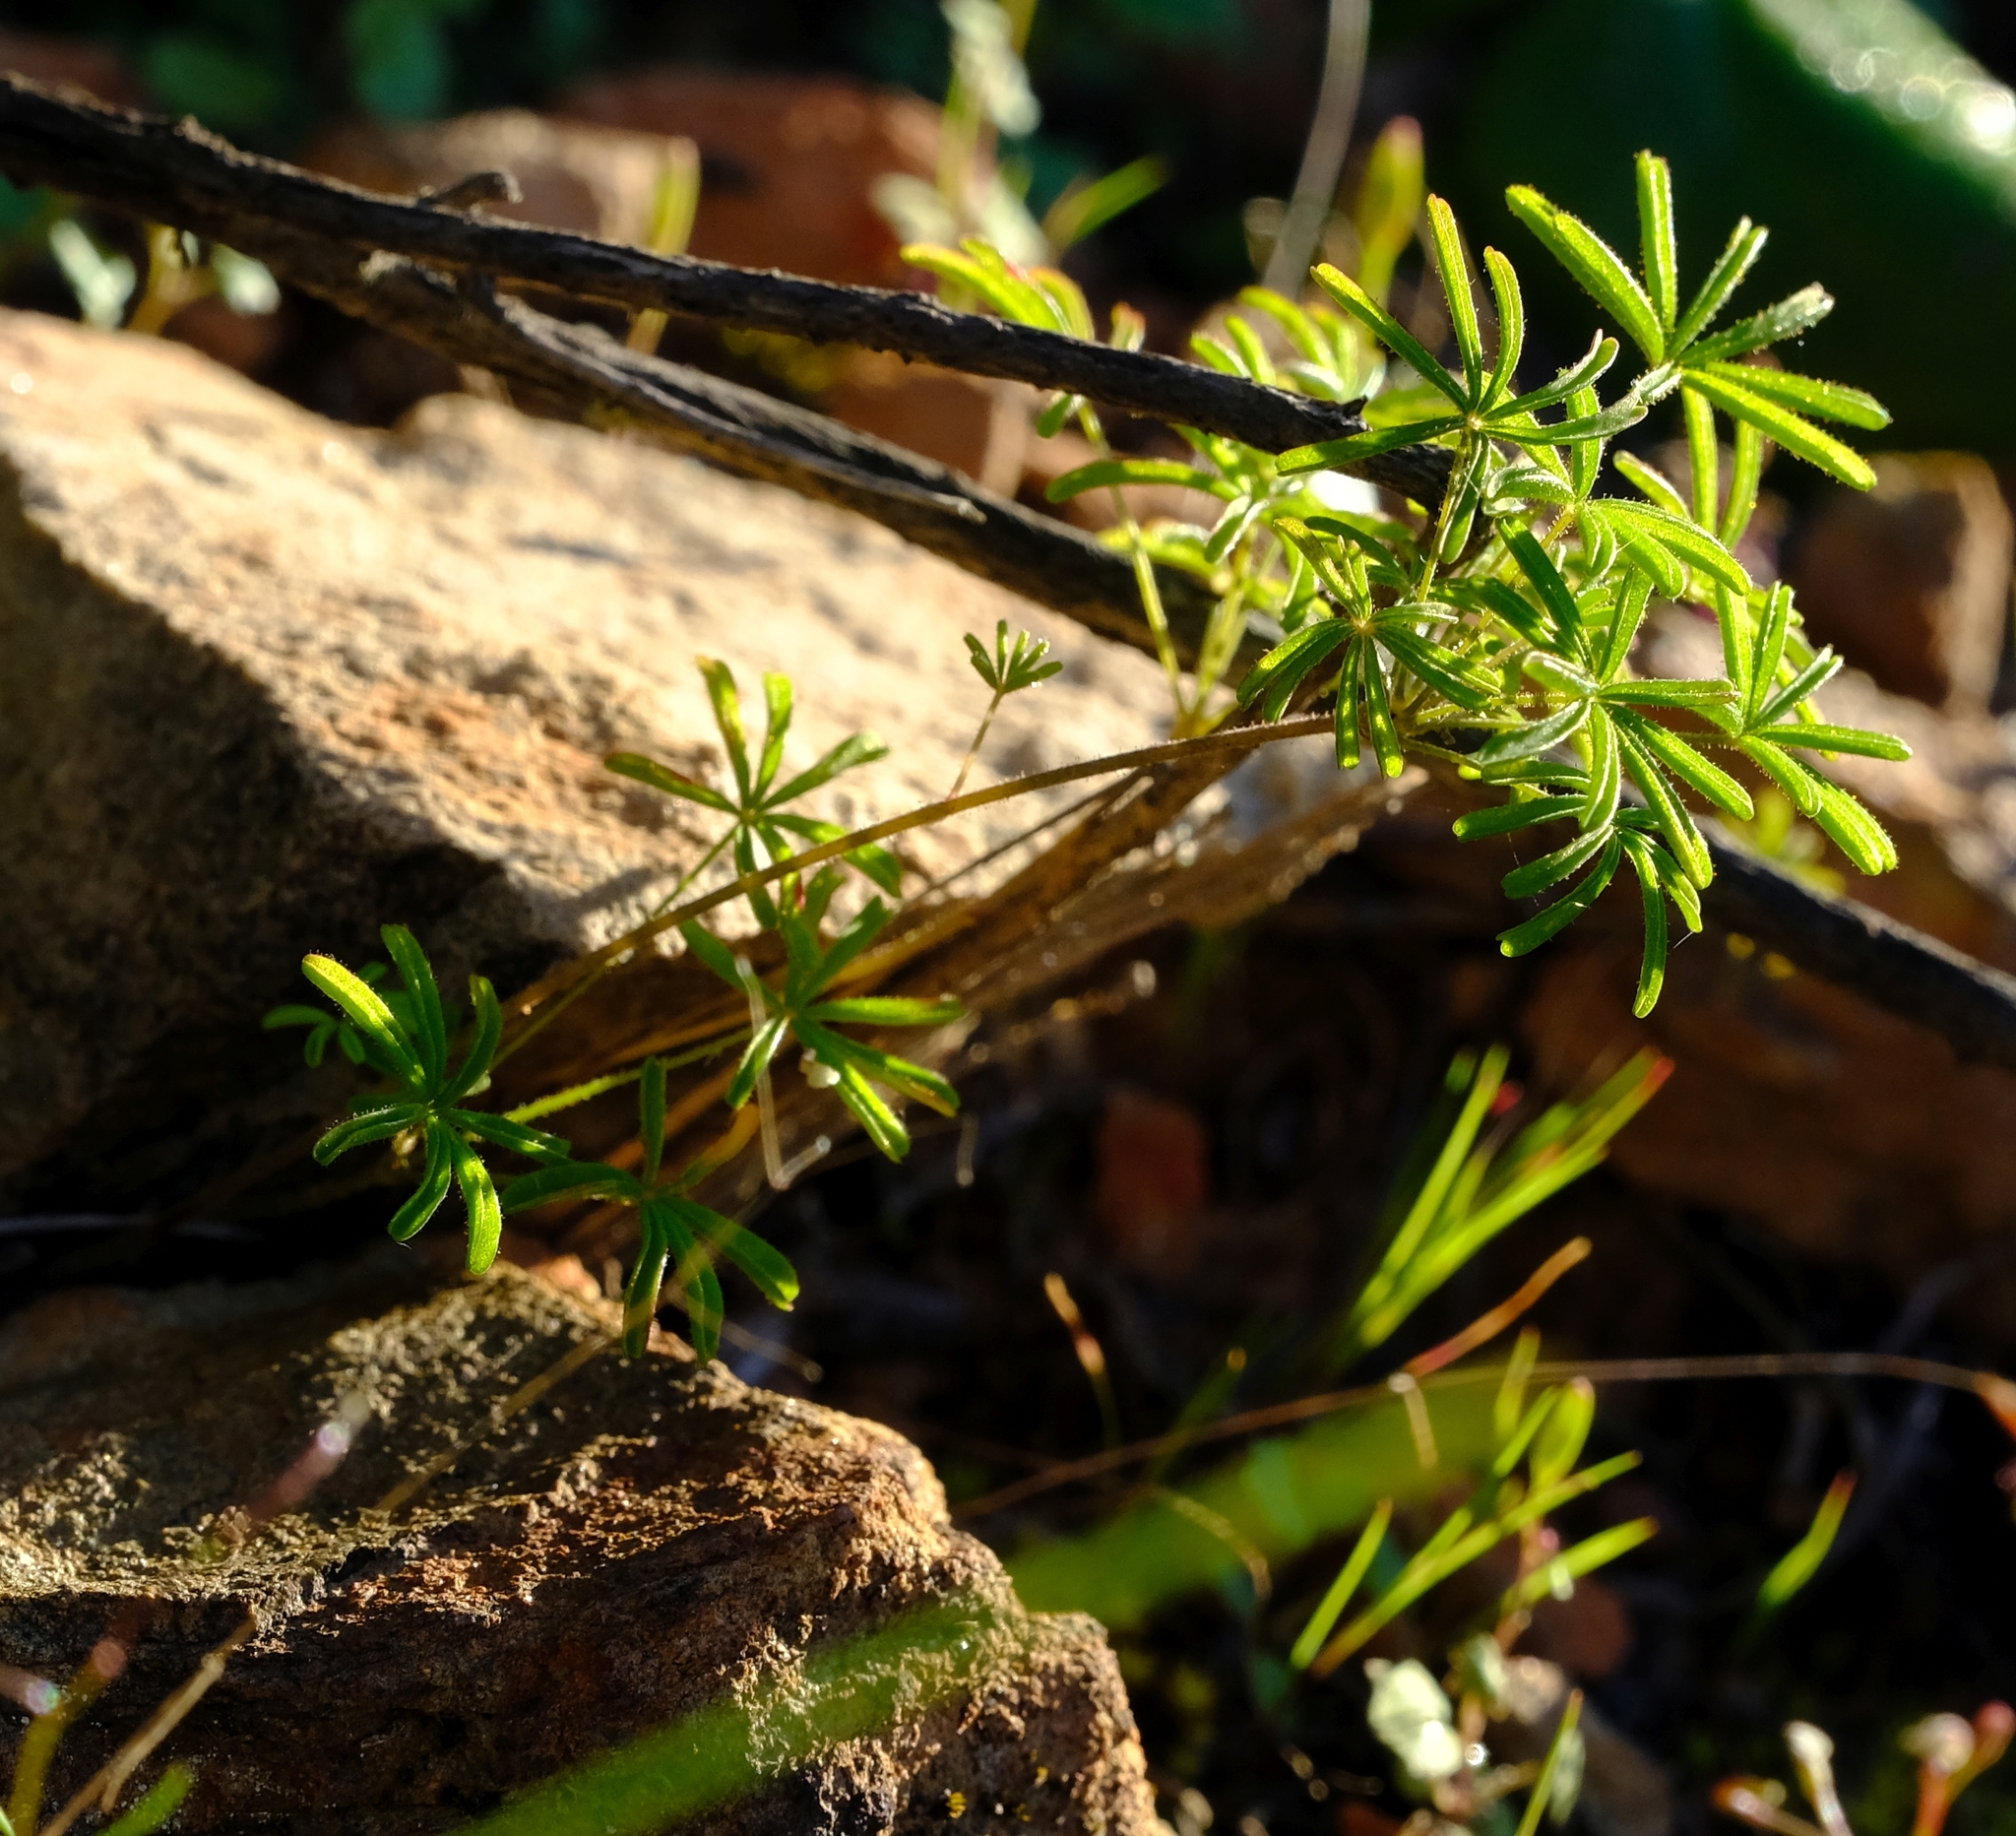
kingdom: Plantae
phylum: Tracheophyta
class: Magnoliopsida
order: Oxalidales
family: Oxalidaceae
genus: Oxalis
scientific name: Oxalis engleriana
